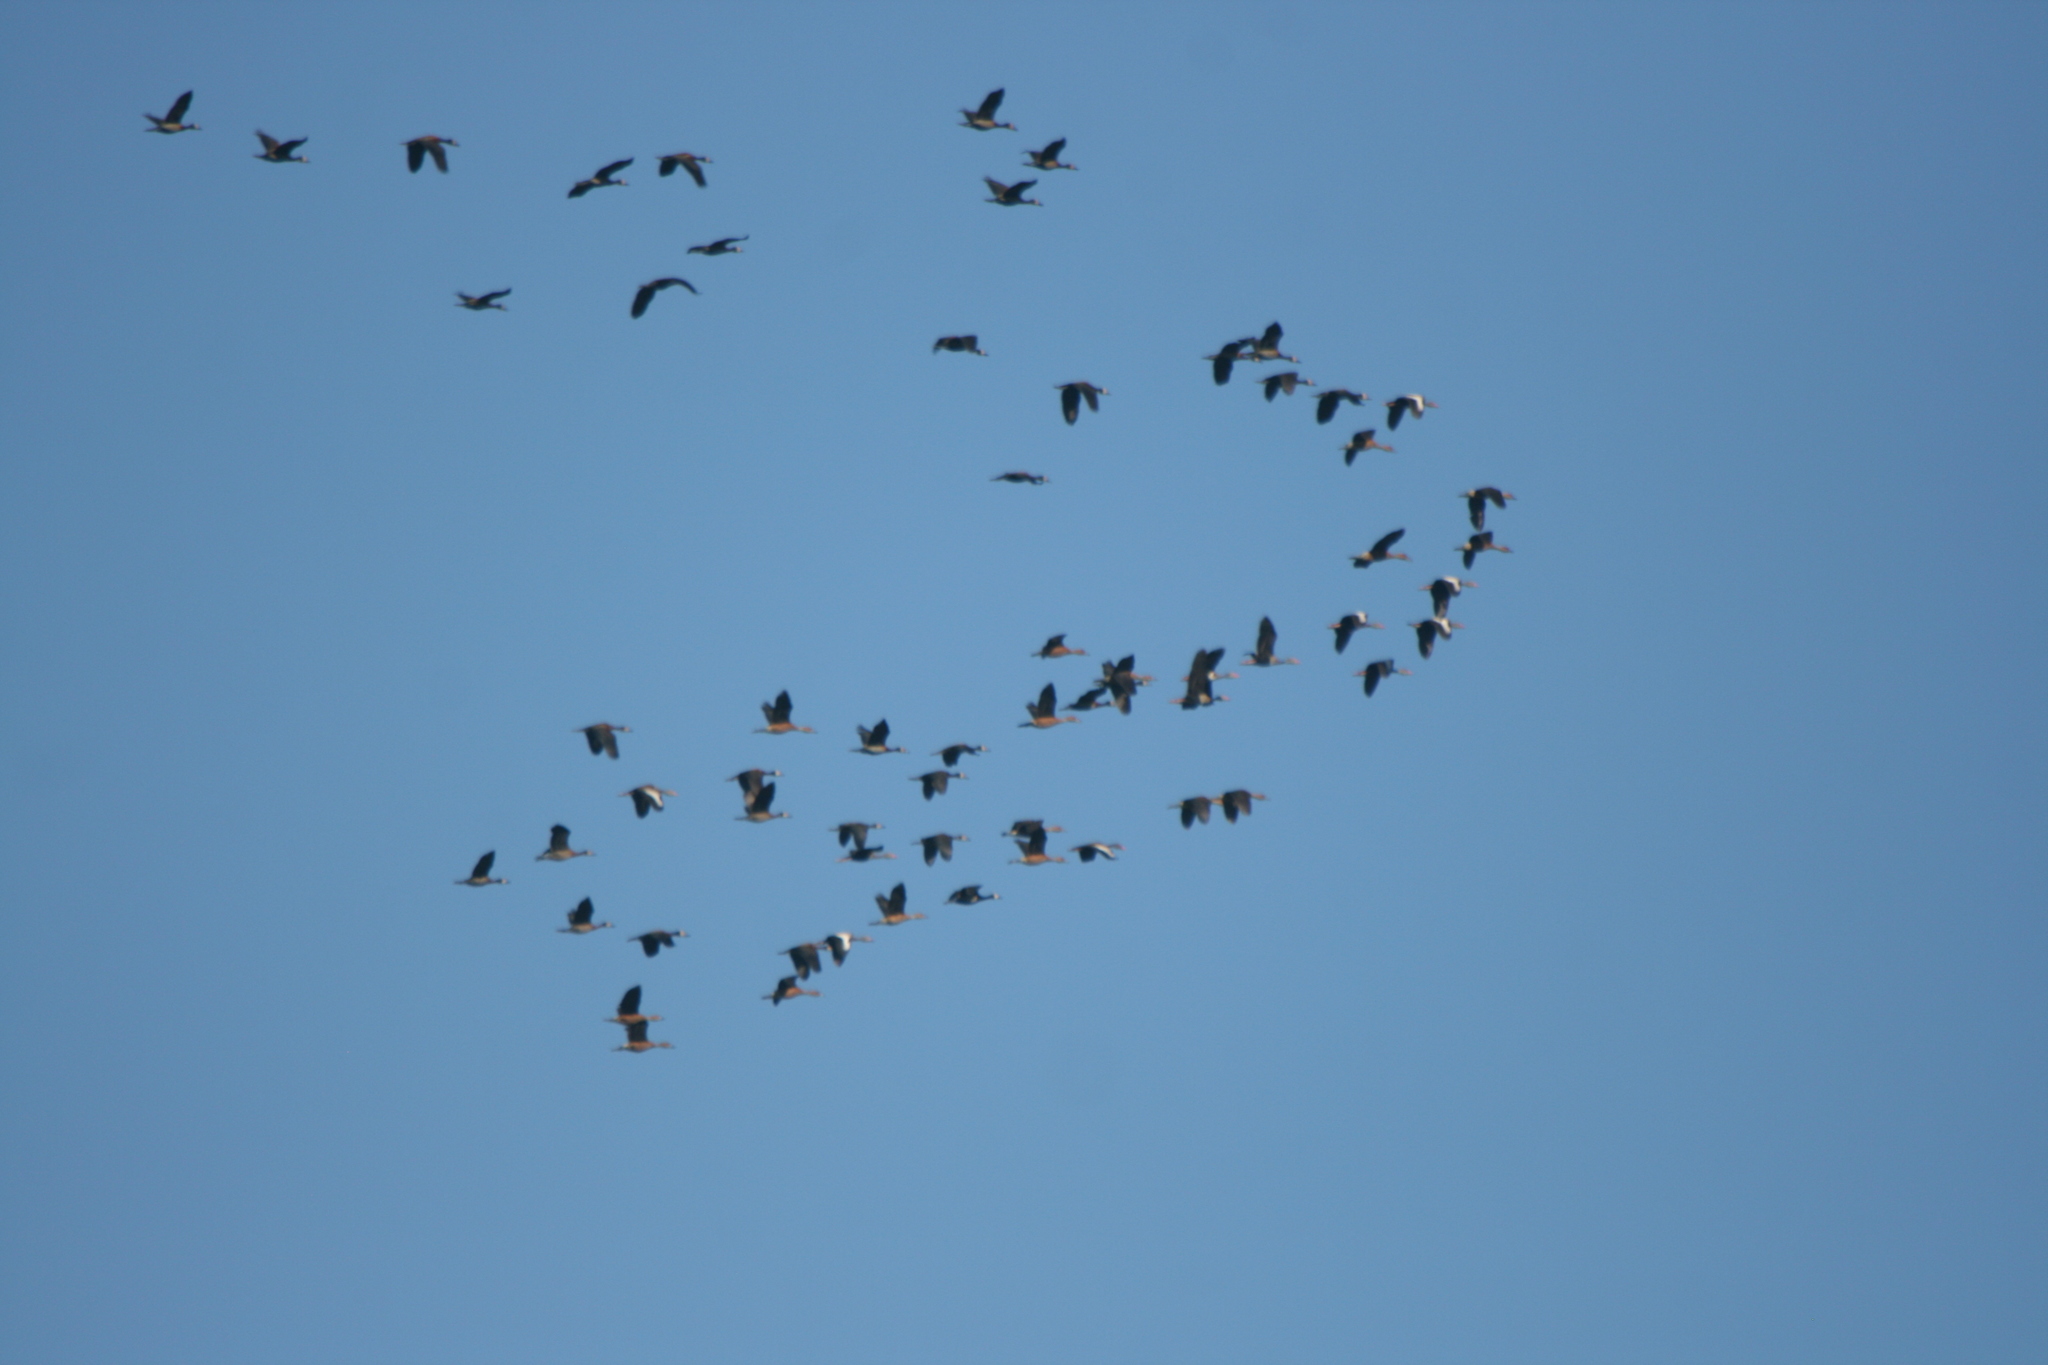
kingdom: Animalia
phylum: Chordata
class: Aves
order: Anseriformes
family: Anatidae
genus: Dendrocygna
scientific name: Dendrocygna bicolor
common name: Fulvous whistling duck
